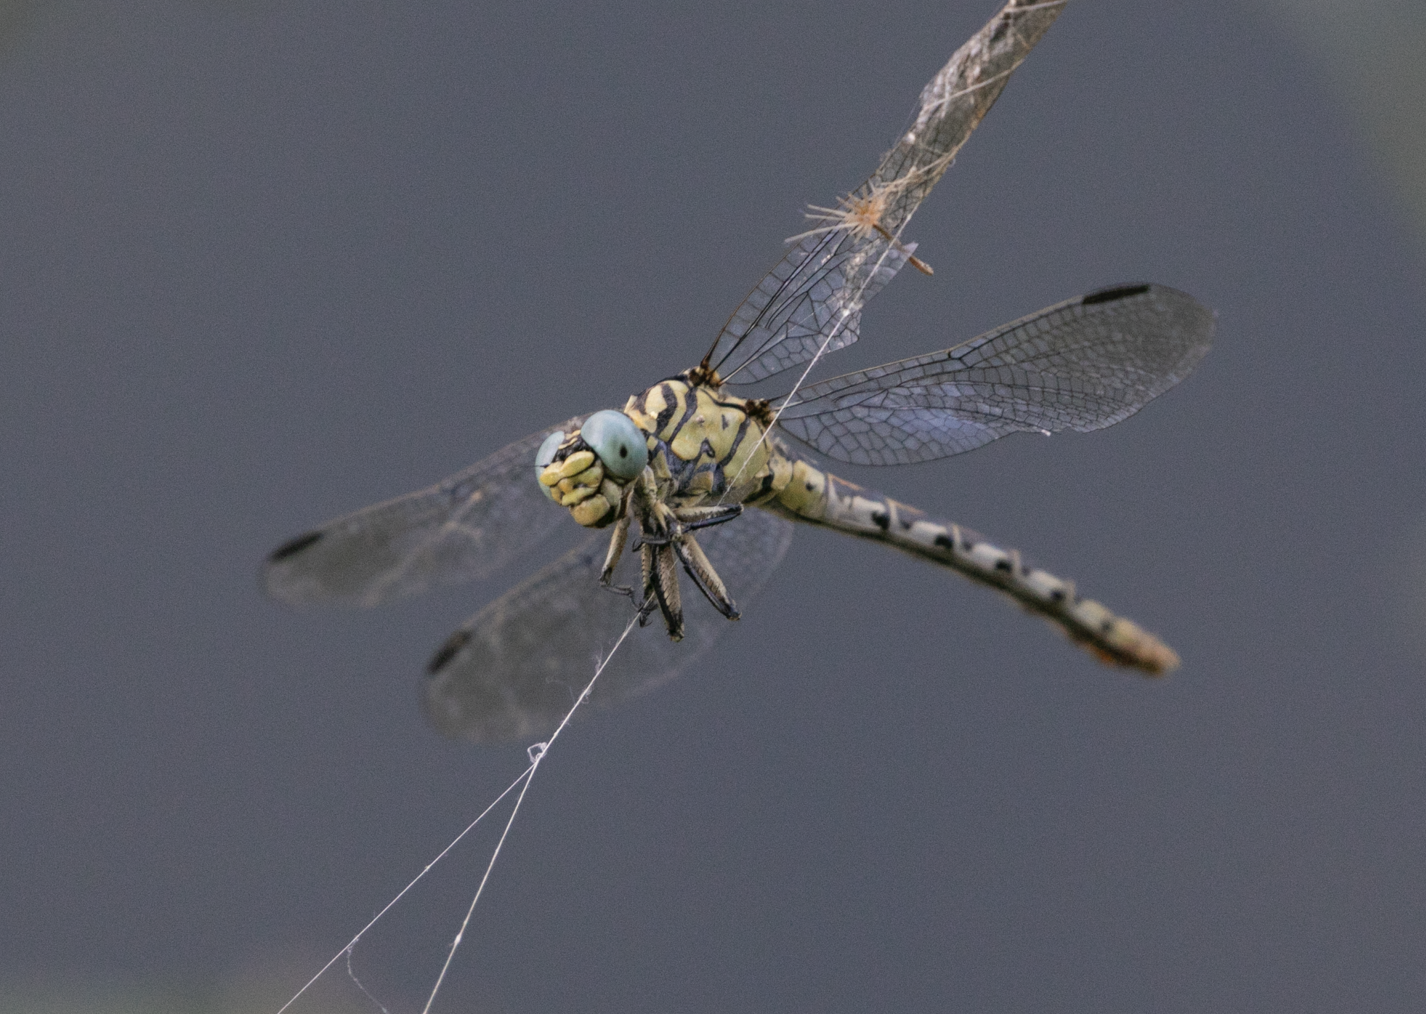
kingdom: Animalia
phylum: Arthropoda
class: Insecta
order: Odonata
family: Gomphidae
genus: Onychogomphus
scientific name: Onychogomphus forcipatus
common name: Small pincertail
